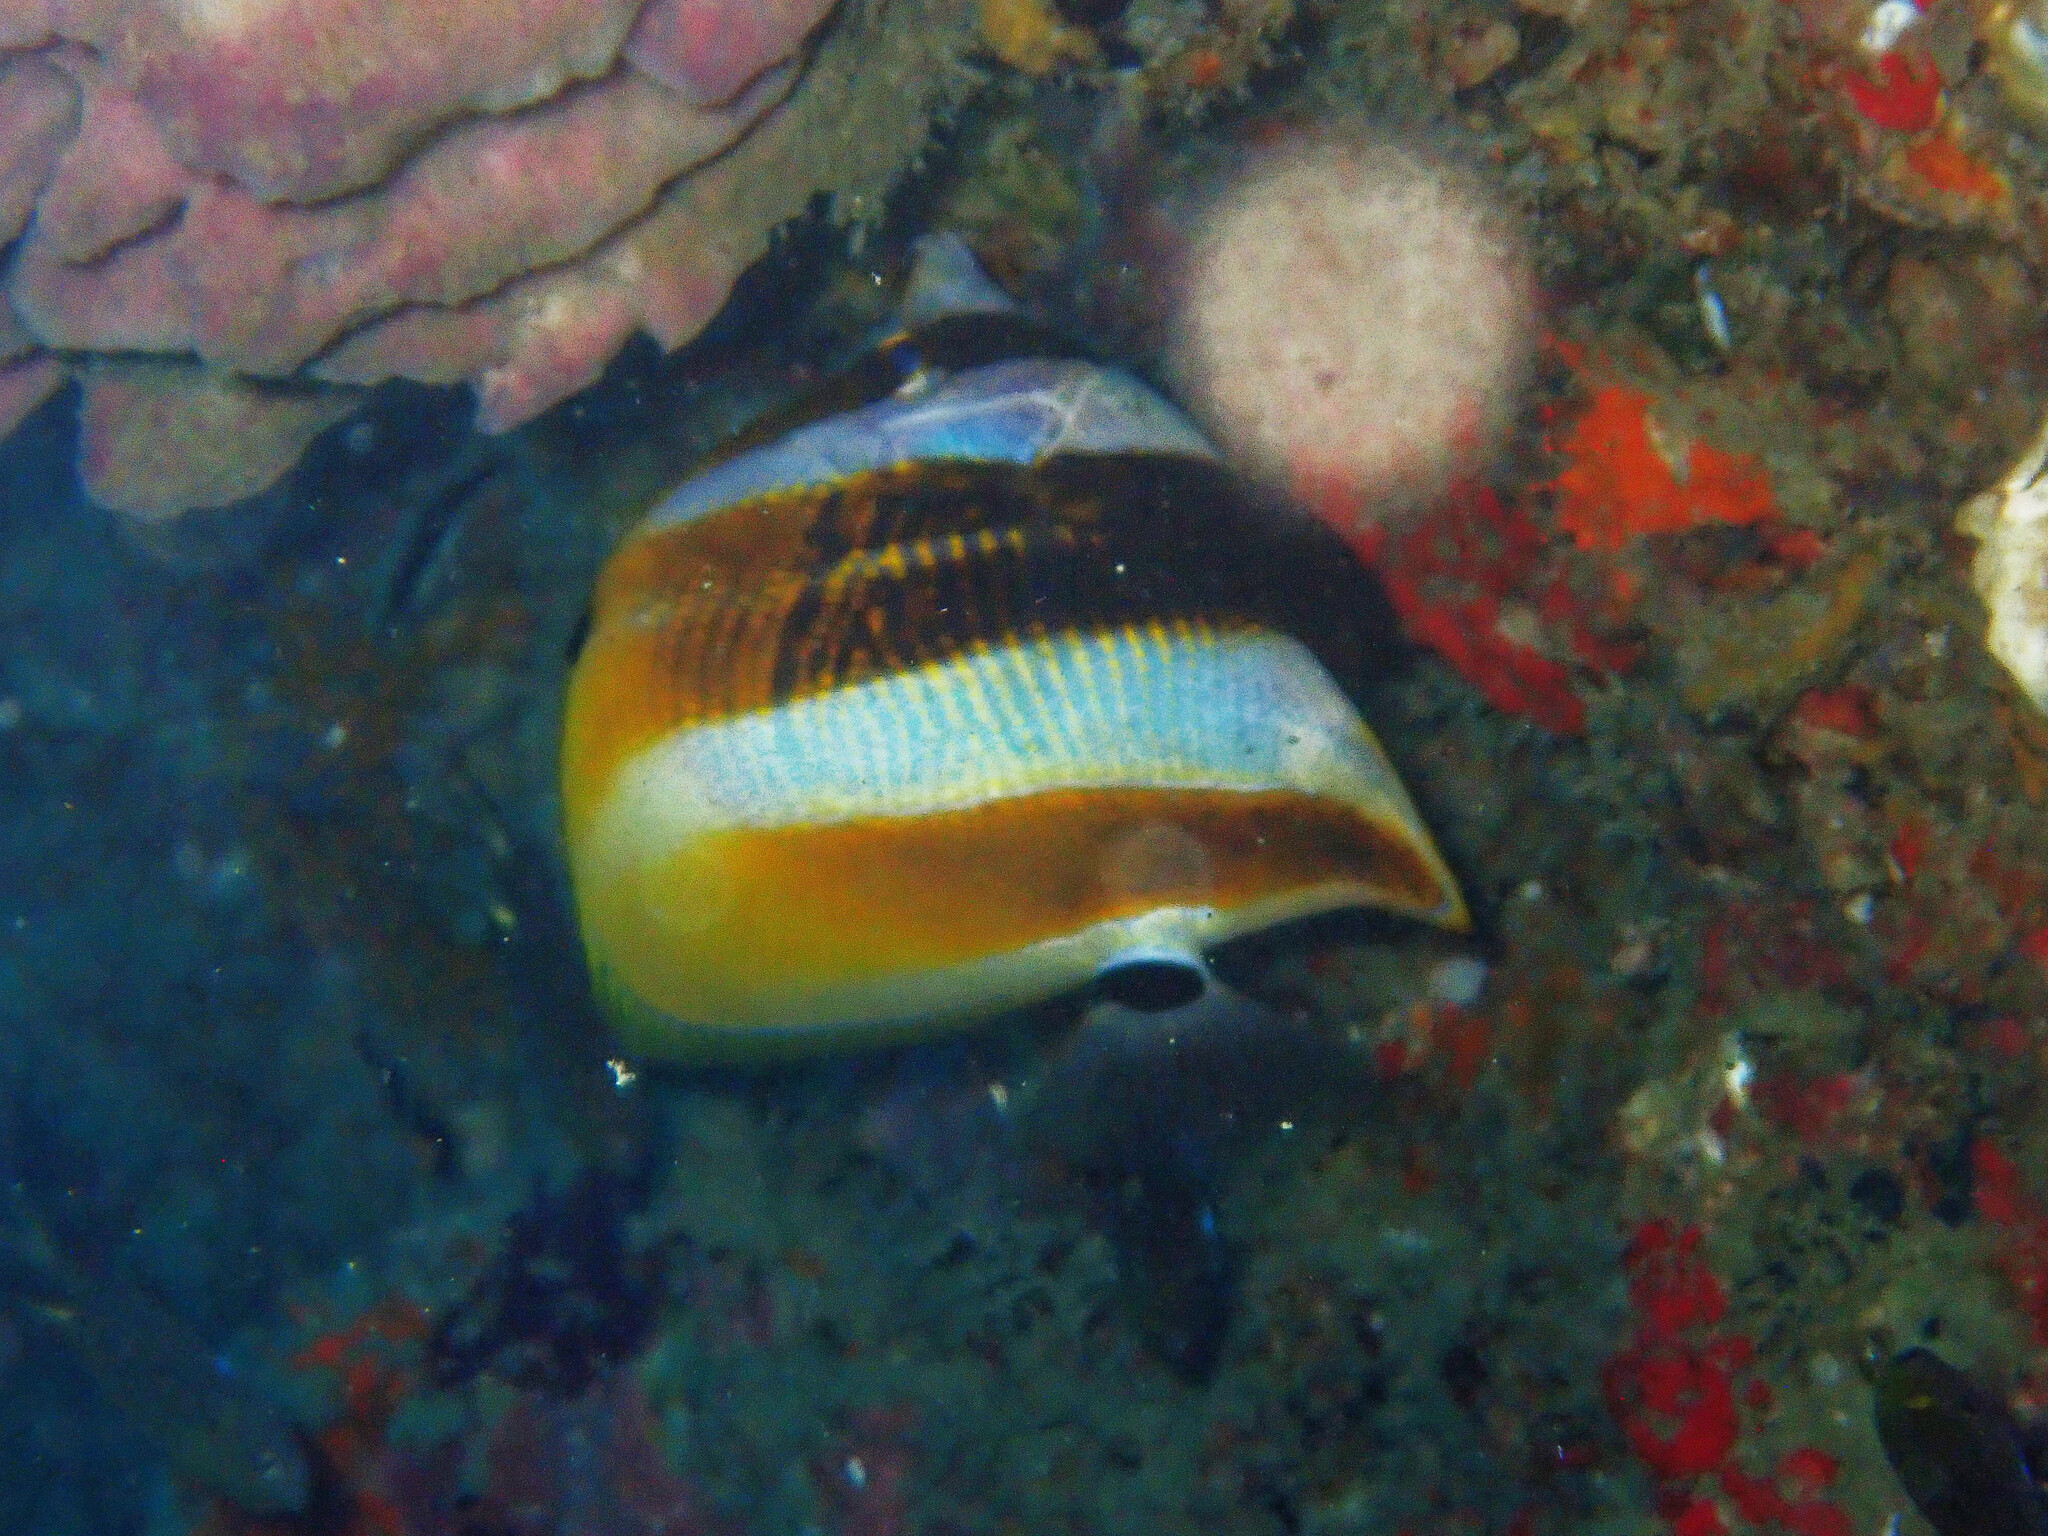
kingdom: Animalia
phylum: Chordata
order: Perciformes
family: Chaetodontidae
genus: Coradion
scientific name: Coradion altivelis
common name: High-fin butterflyfish
